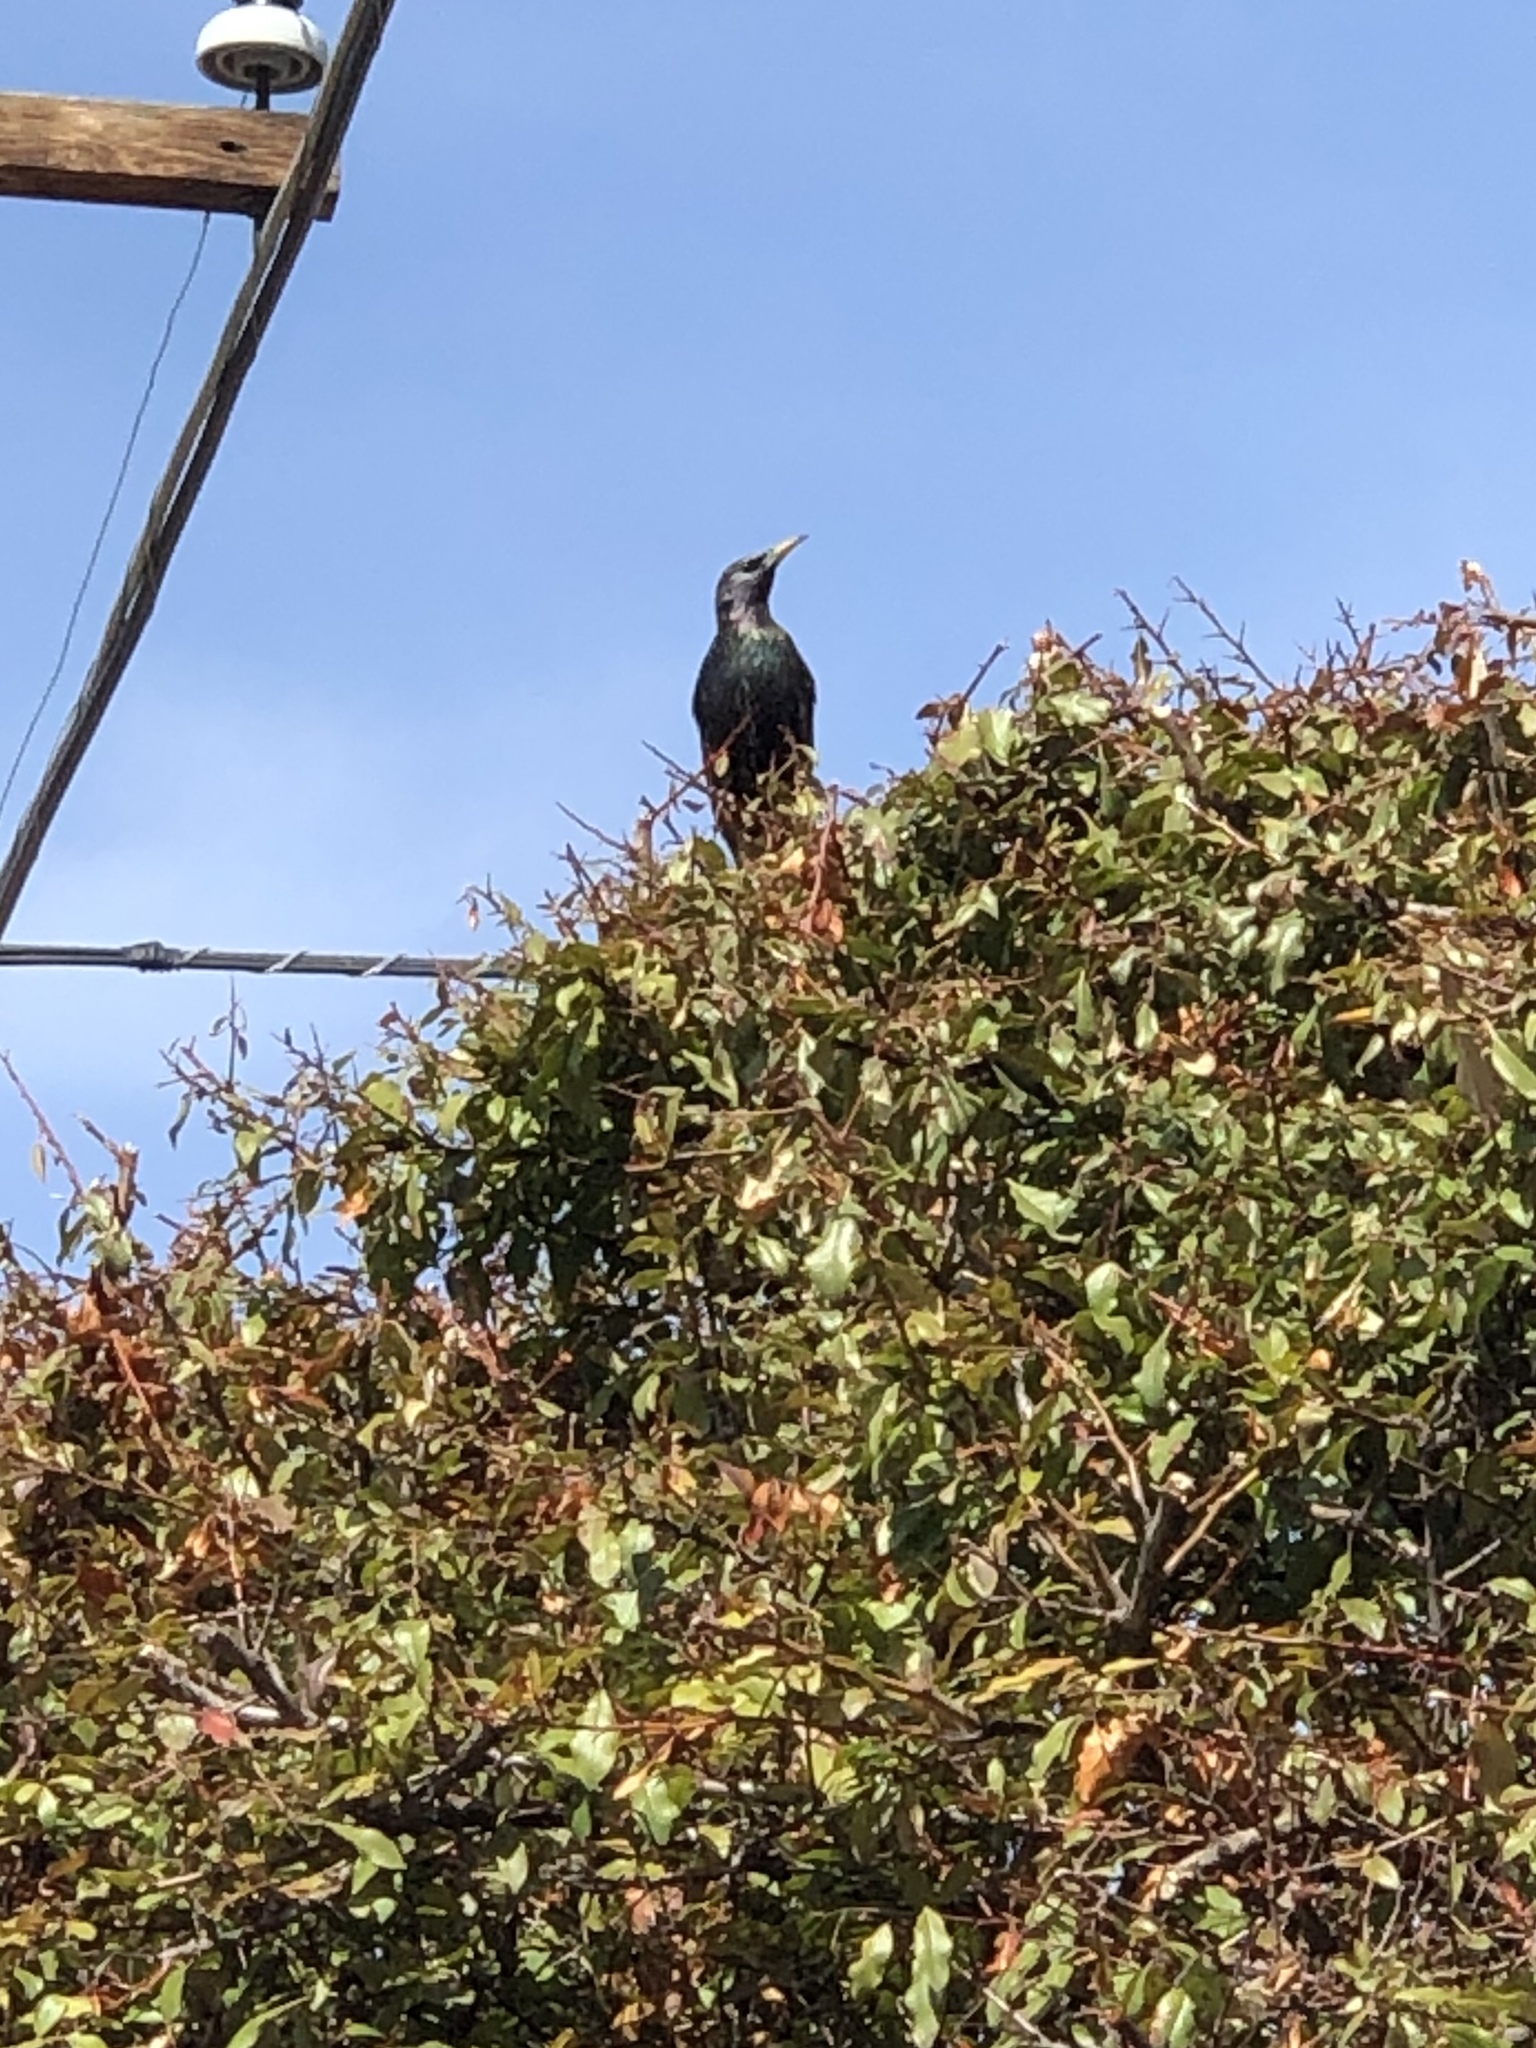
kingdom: Animalia
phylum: Chordata
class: Aves
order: Passeriformes
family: Sturnidae
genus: Sturnus
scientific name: Sturnus vulgaris
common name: Common starling
